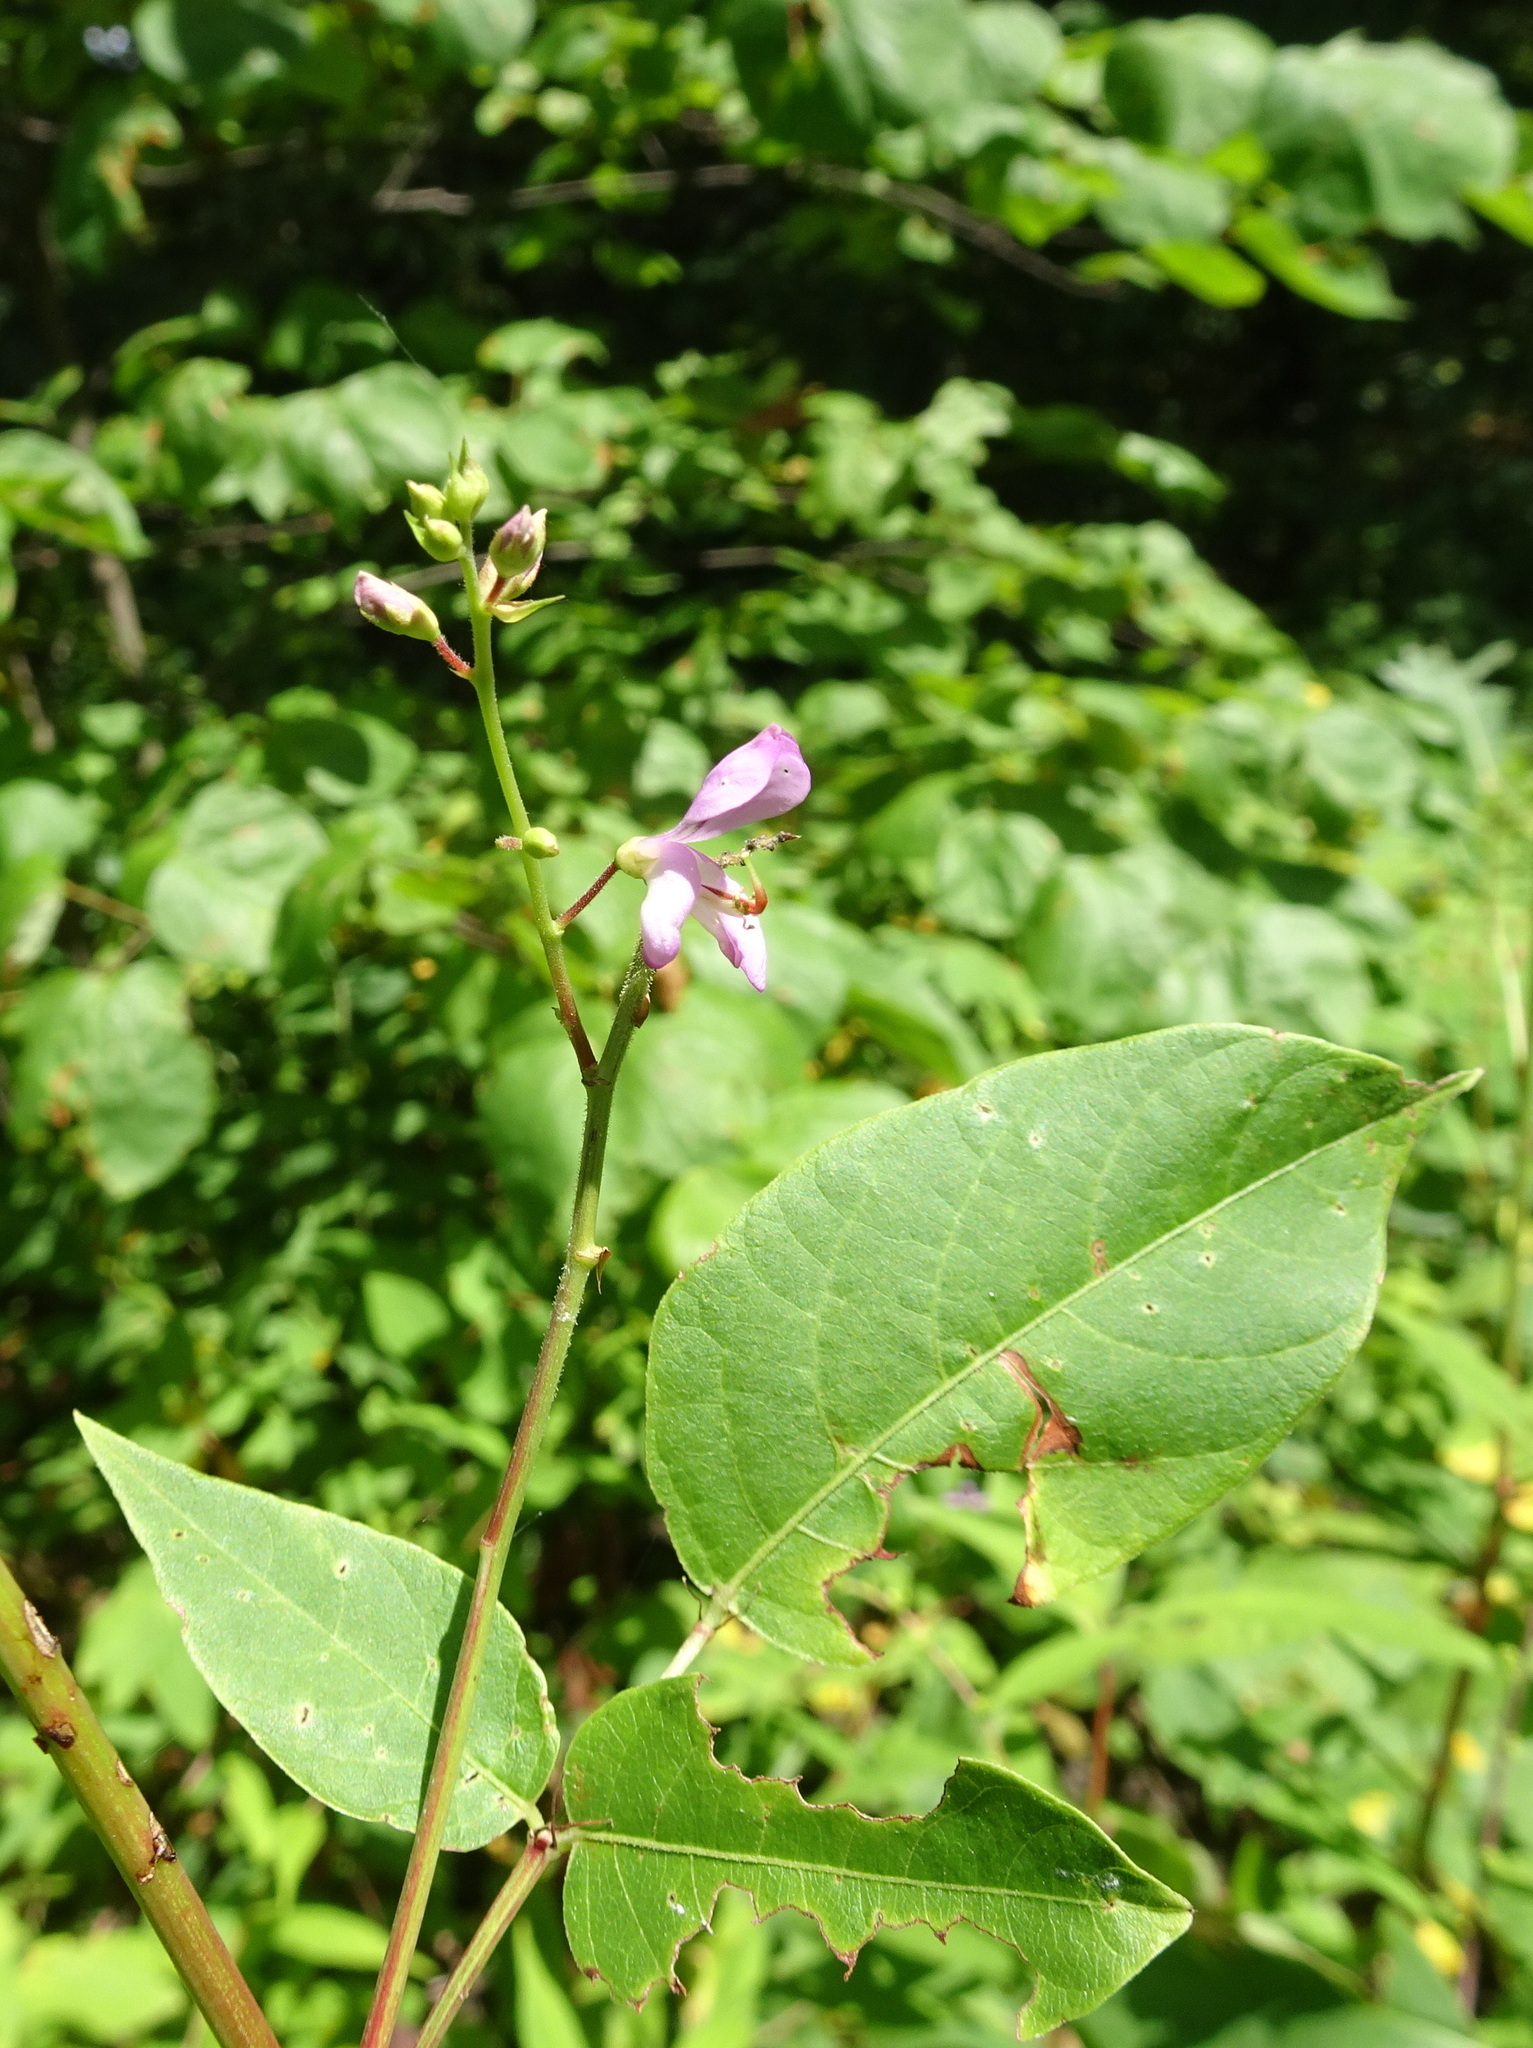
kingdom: Plantae
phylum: Tracheophyta
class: Magnoliopsida
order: Fabales
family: Fabaceae
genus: Desmodium
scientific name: Desmodium cuspidatum
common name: Big tick trefoil
